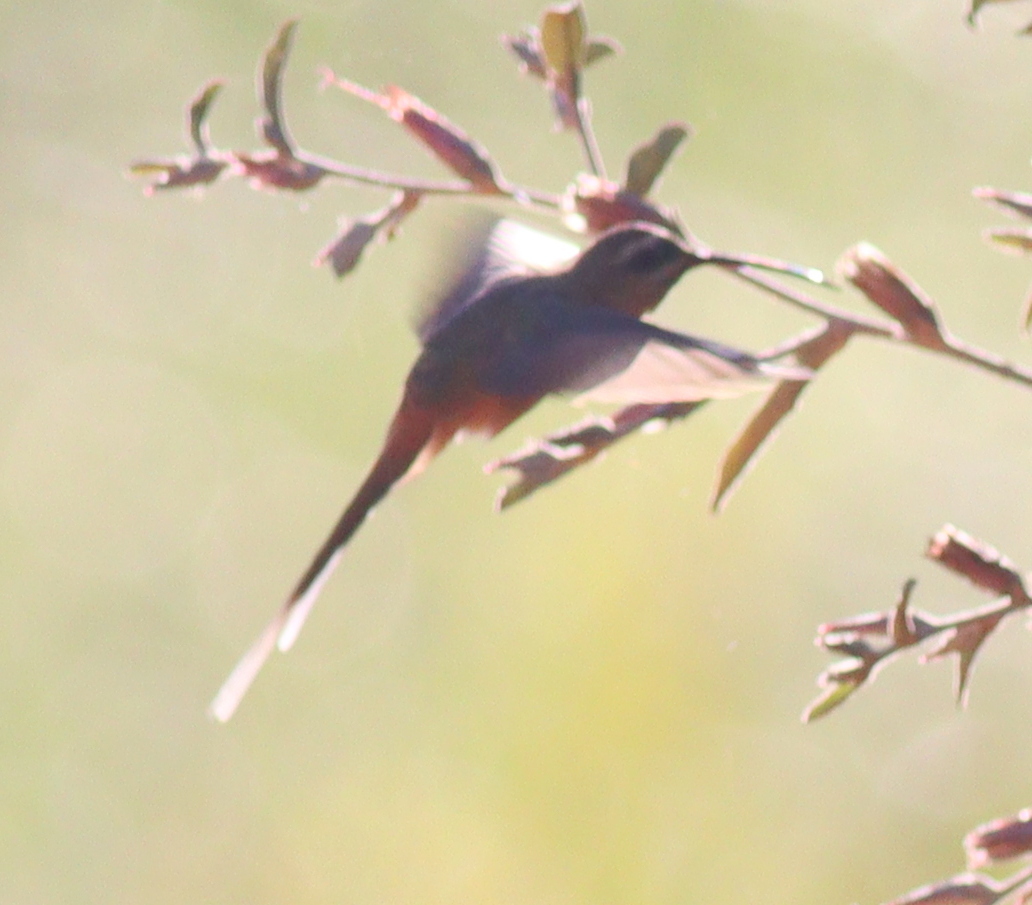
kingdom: Animalia
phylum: Chordata
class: Aves
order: Apodiformes
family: Trochilidae
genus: Phaethornis
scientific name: Phaethornis pretrei
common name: Planalto hermit
